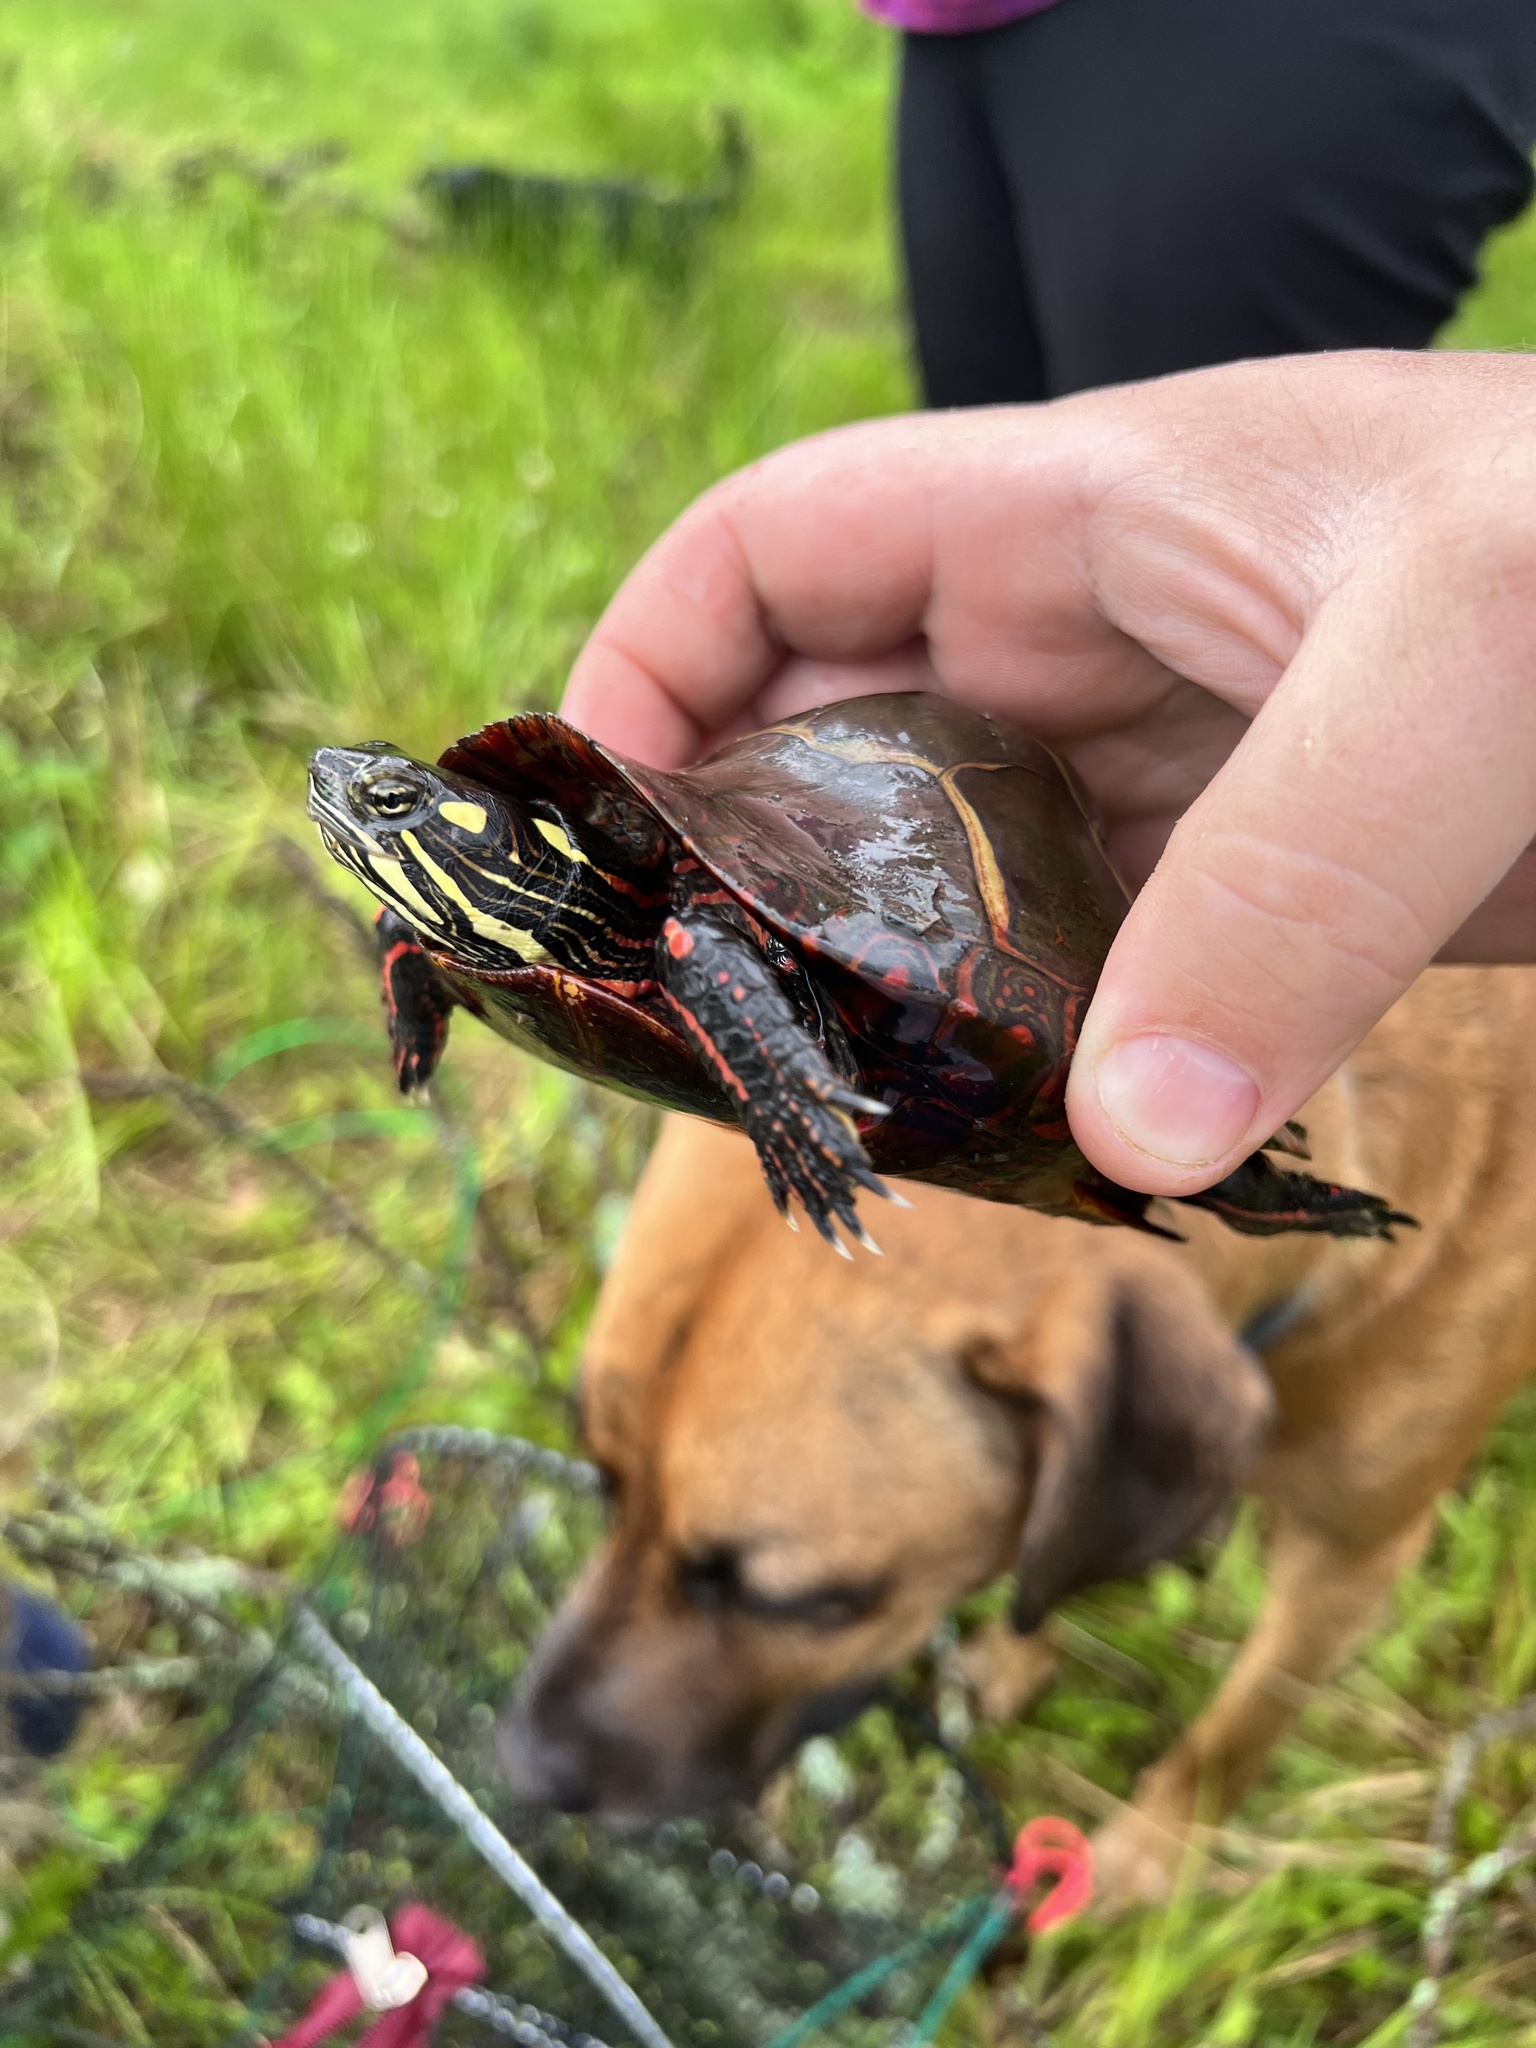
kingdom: Animalia
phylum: Chordata
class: Testudines
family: Emydidae
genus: Chrysemys
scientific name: Chrysemys picta
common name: Painted turtle
